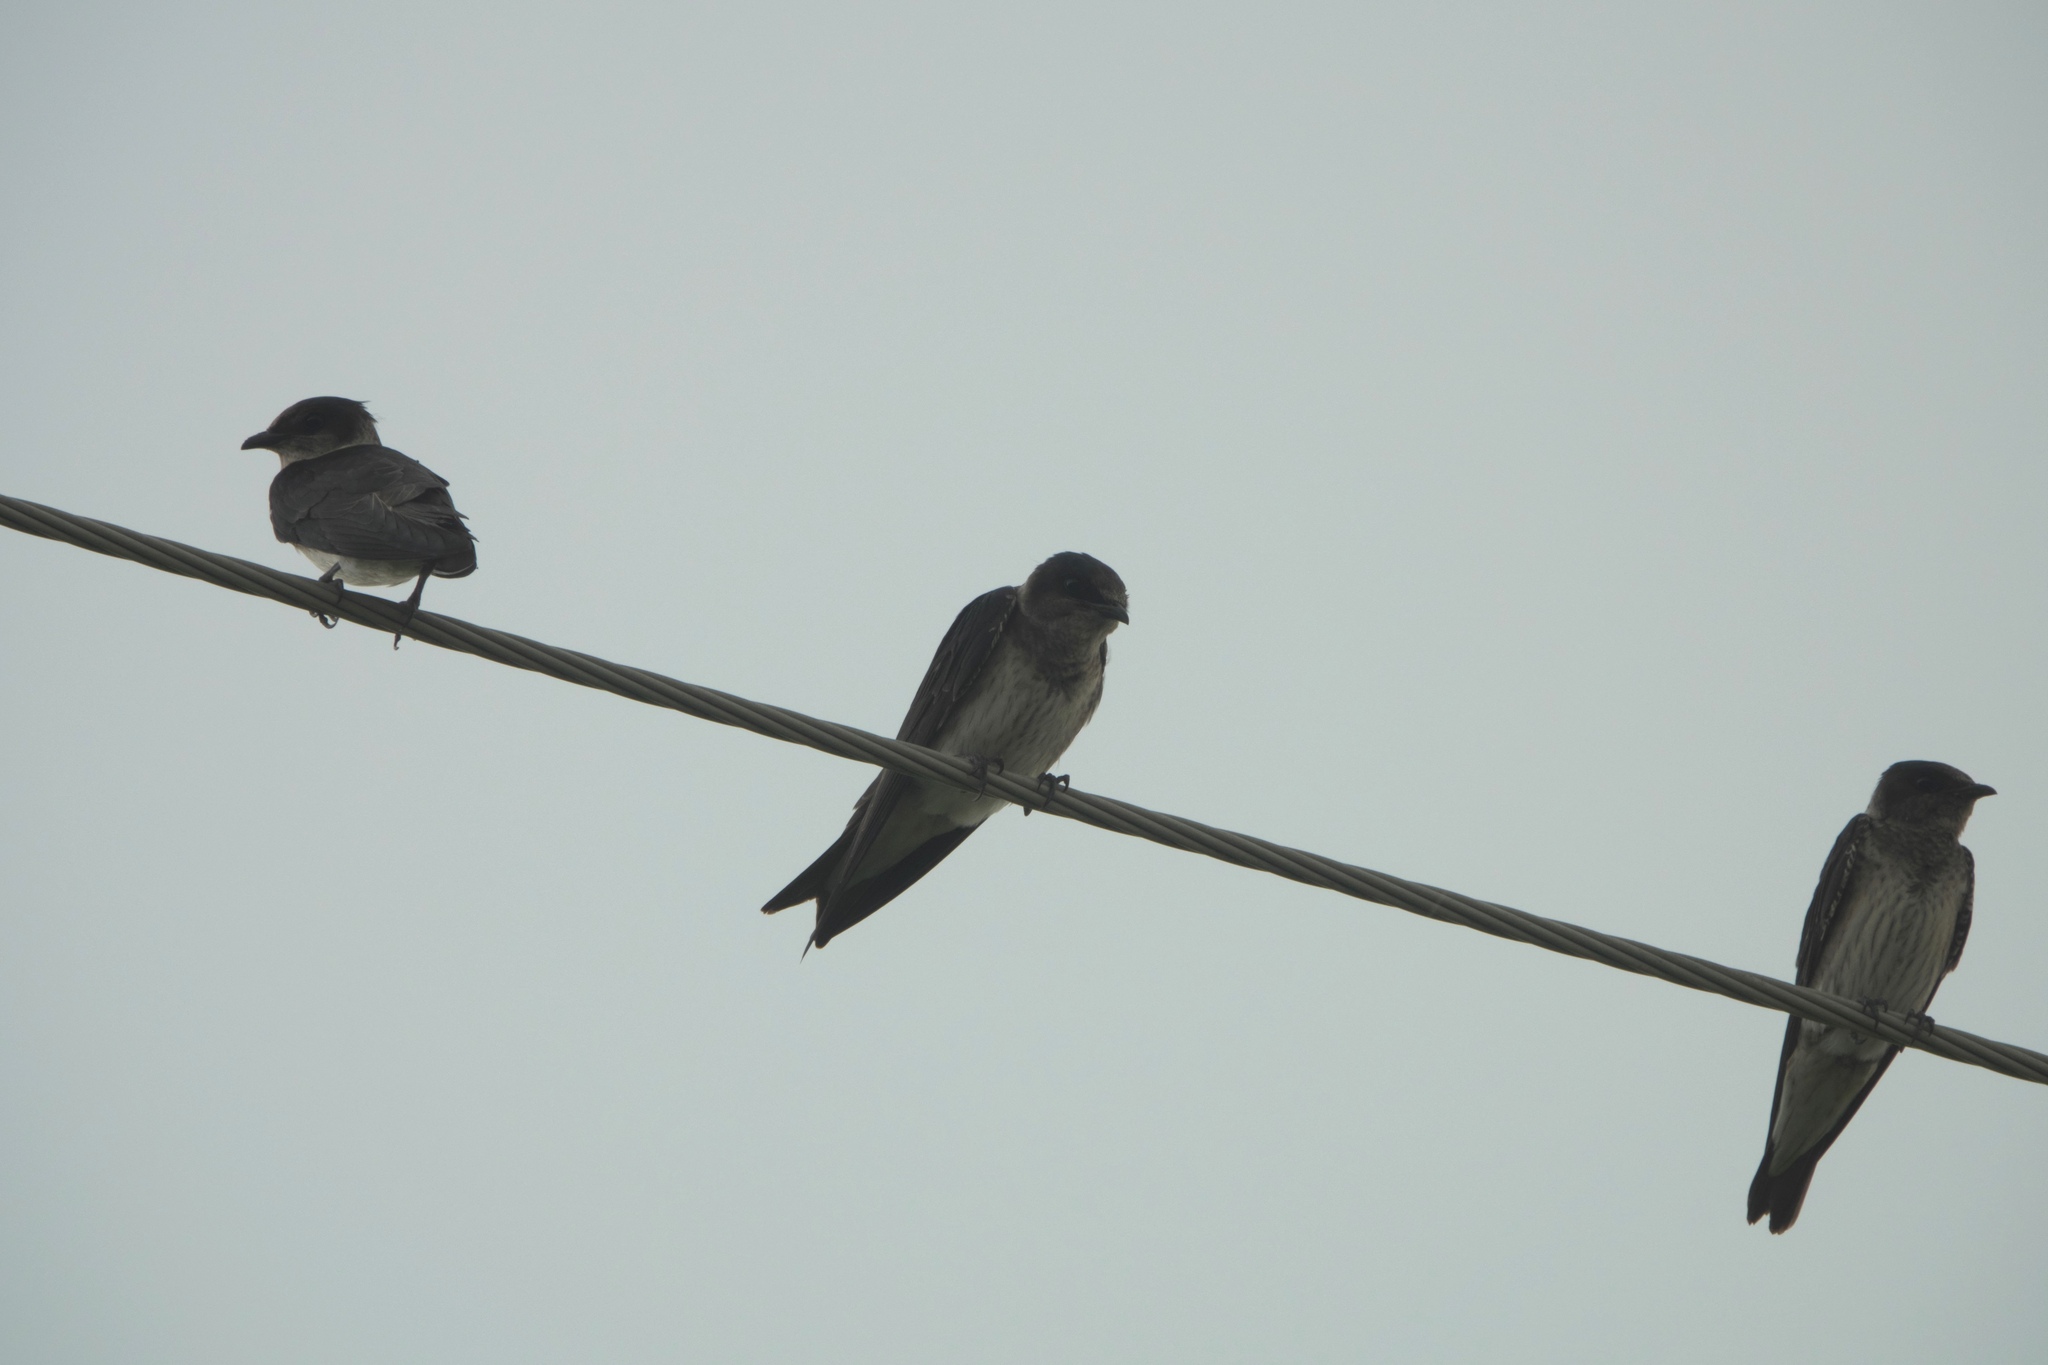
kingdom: Animalia
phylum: Chordata
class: Aves
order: Passeriformes
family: Hirundinidae
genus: Progne
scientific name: Progne subis
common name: Purple martin
